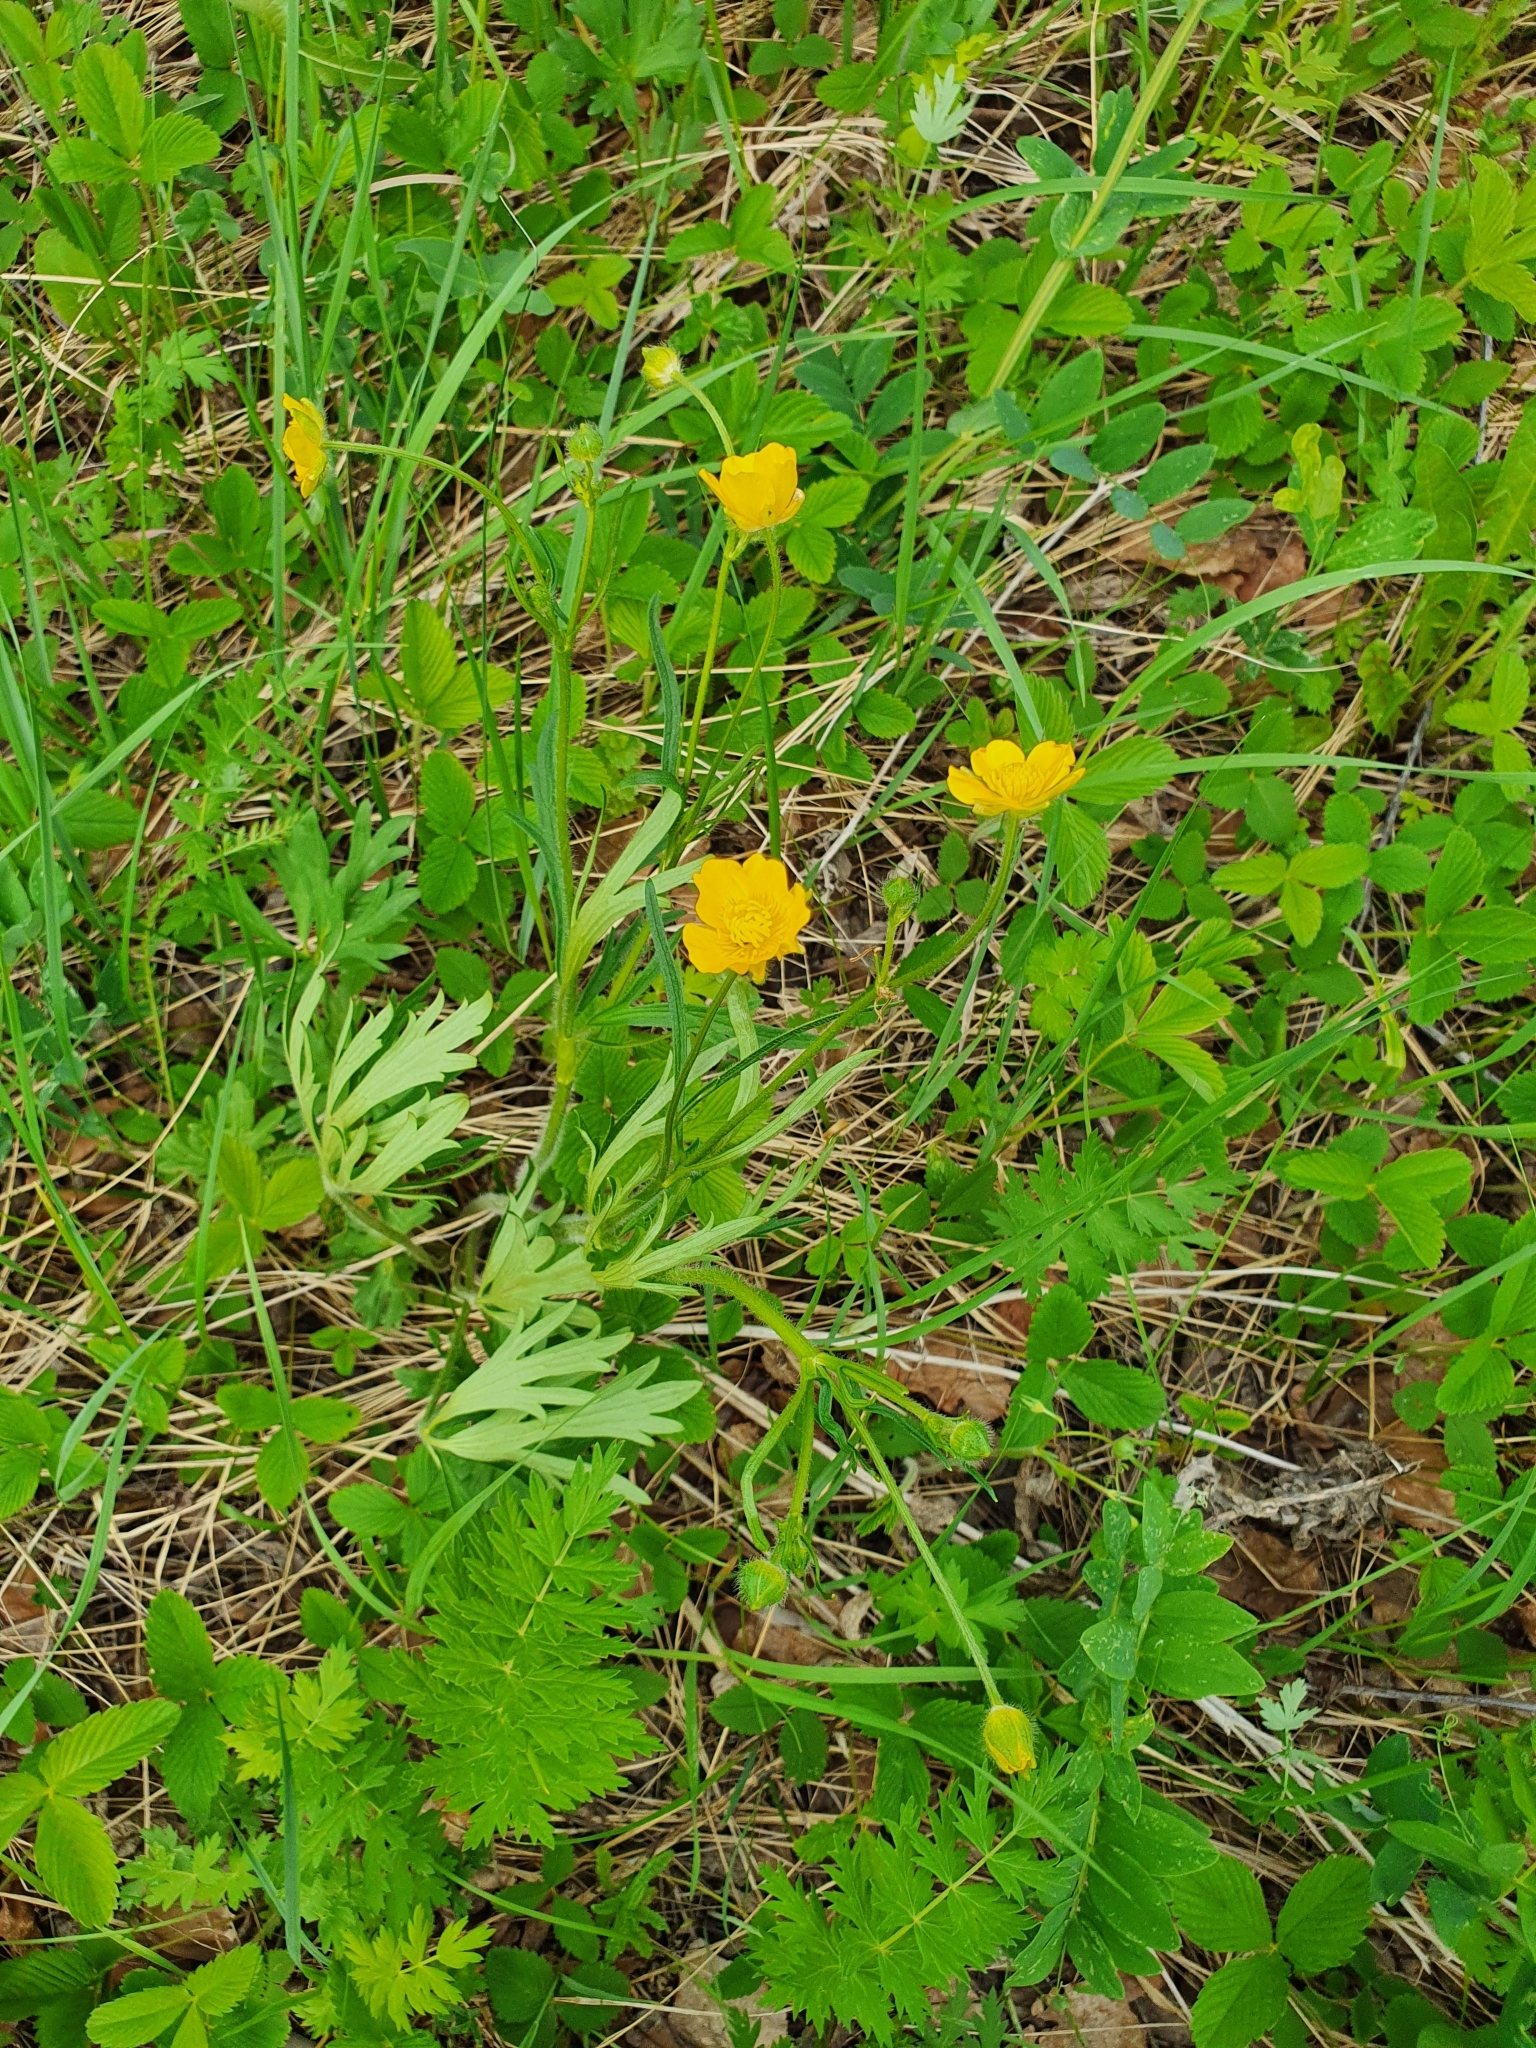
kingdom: Plantae
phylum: Tracheophyta
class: Magnoliopsida
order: Ranunculales
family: Ranunculaceae
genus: Ranunculus
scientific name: Ranunculus polyanthemos
